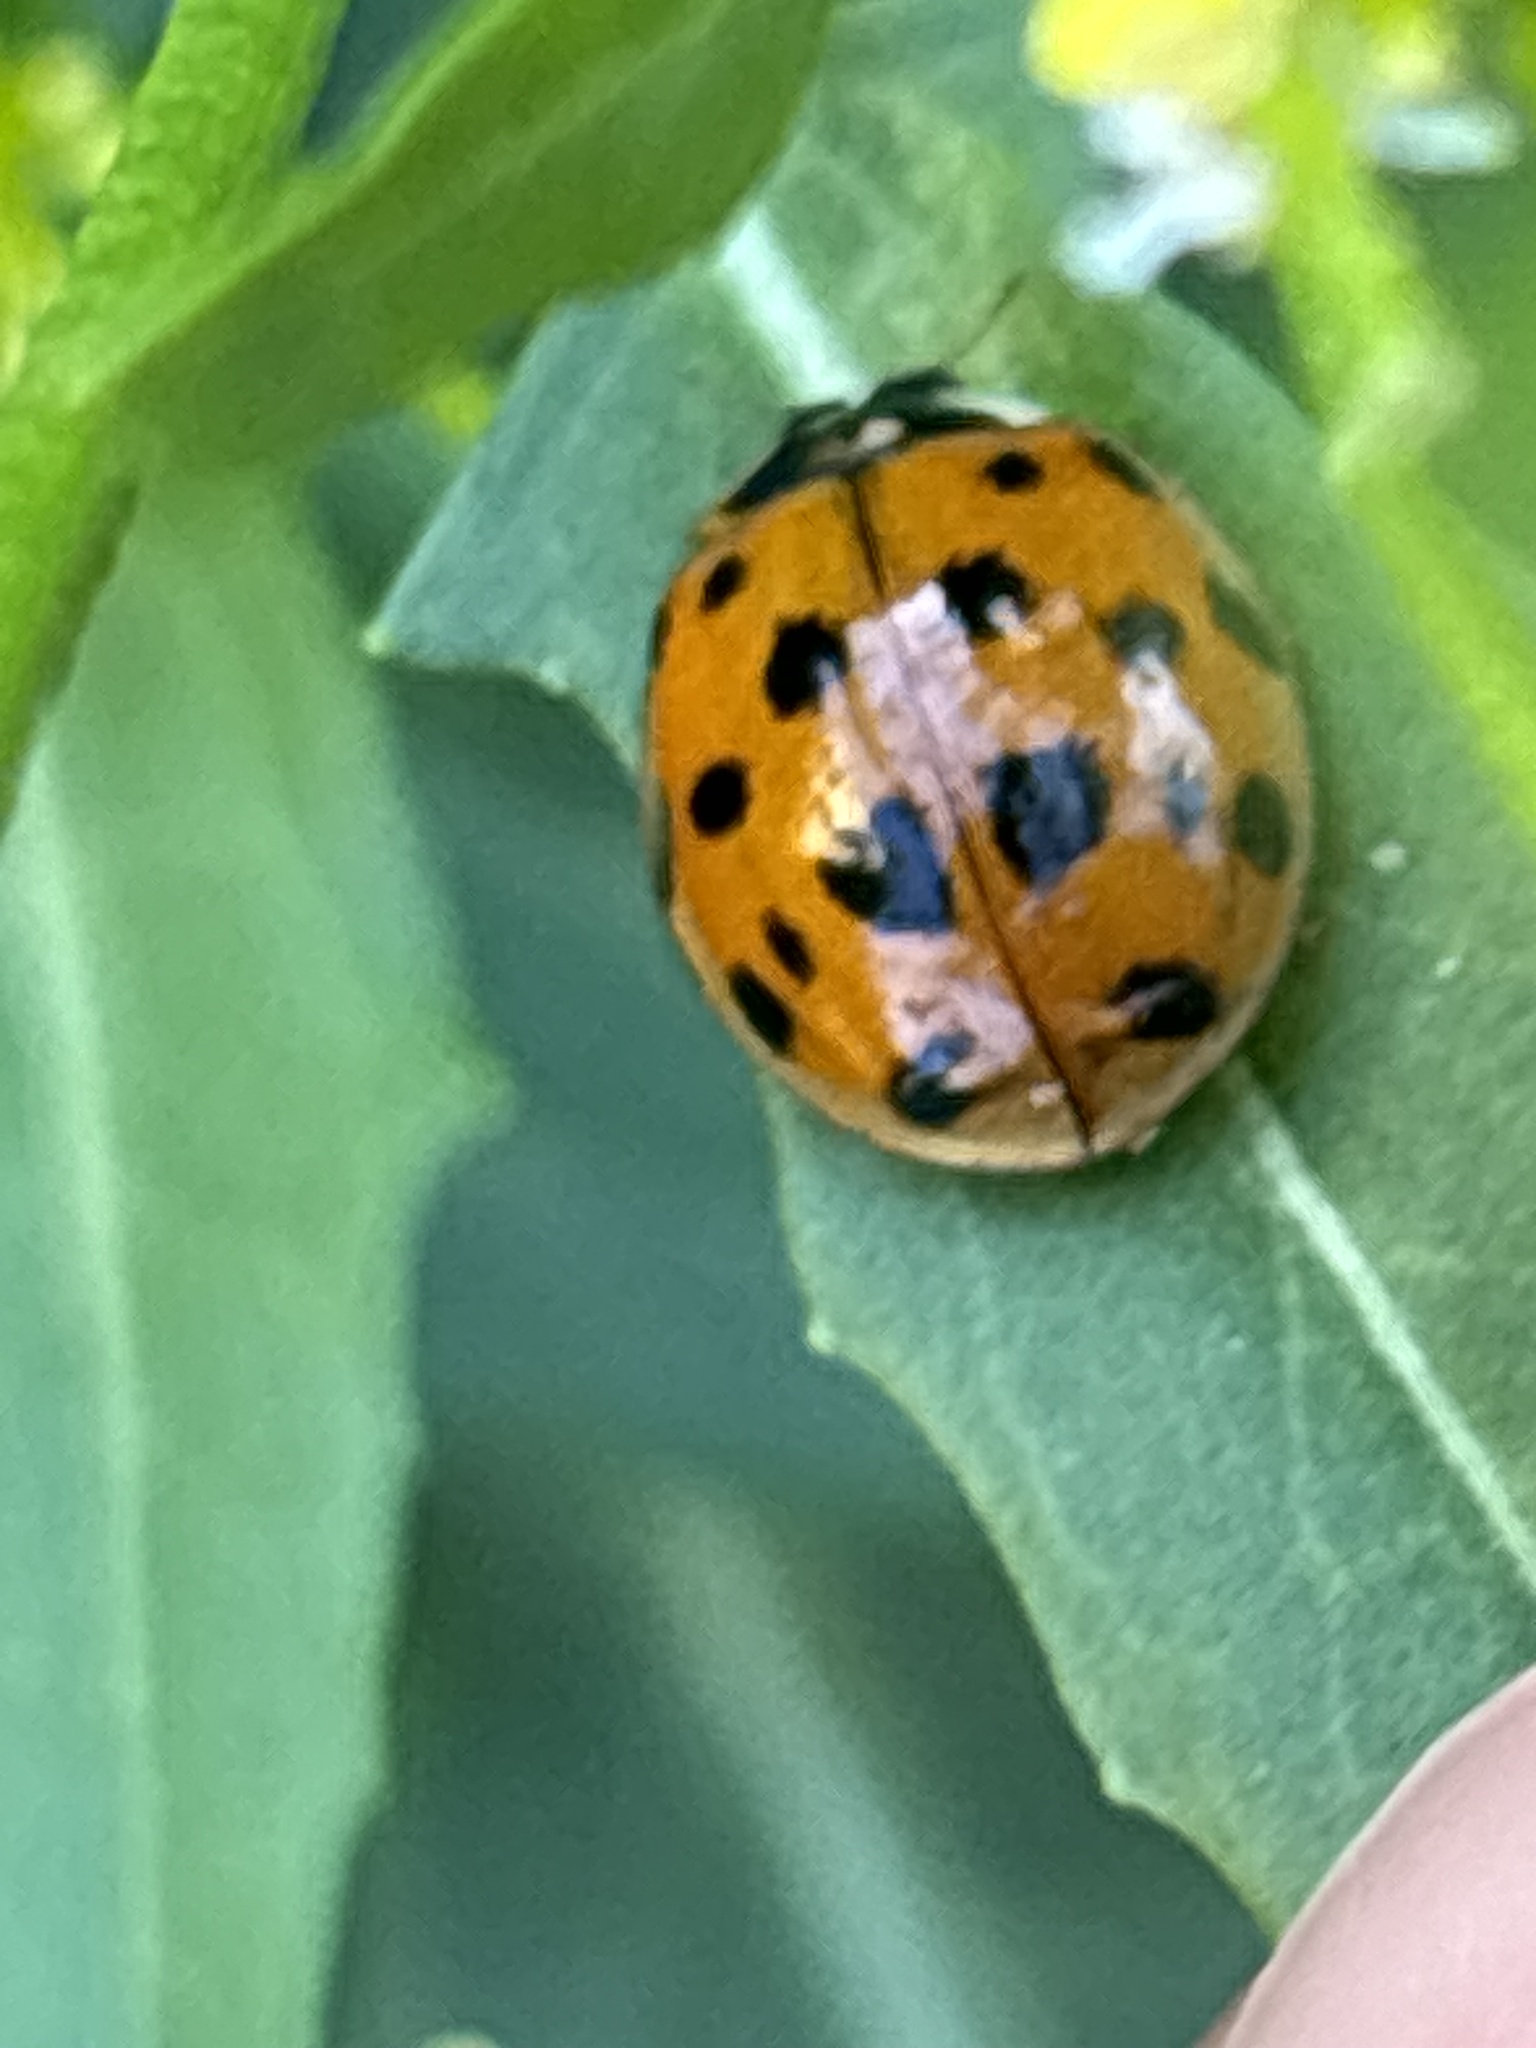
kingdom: Animalia
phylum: Arthropoda
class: Insecta
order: Coleoptera
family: Coccinellidae
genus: Harmonia
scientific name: Harmonia axyridis
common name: Harlequin ladybird
